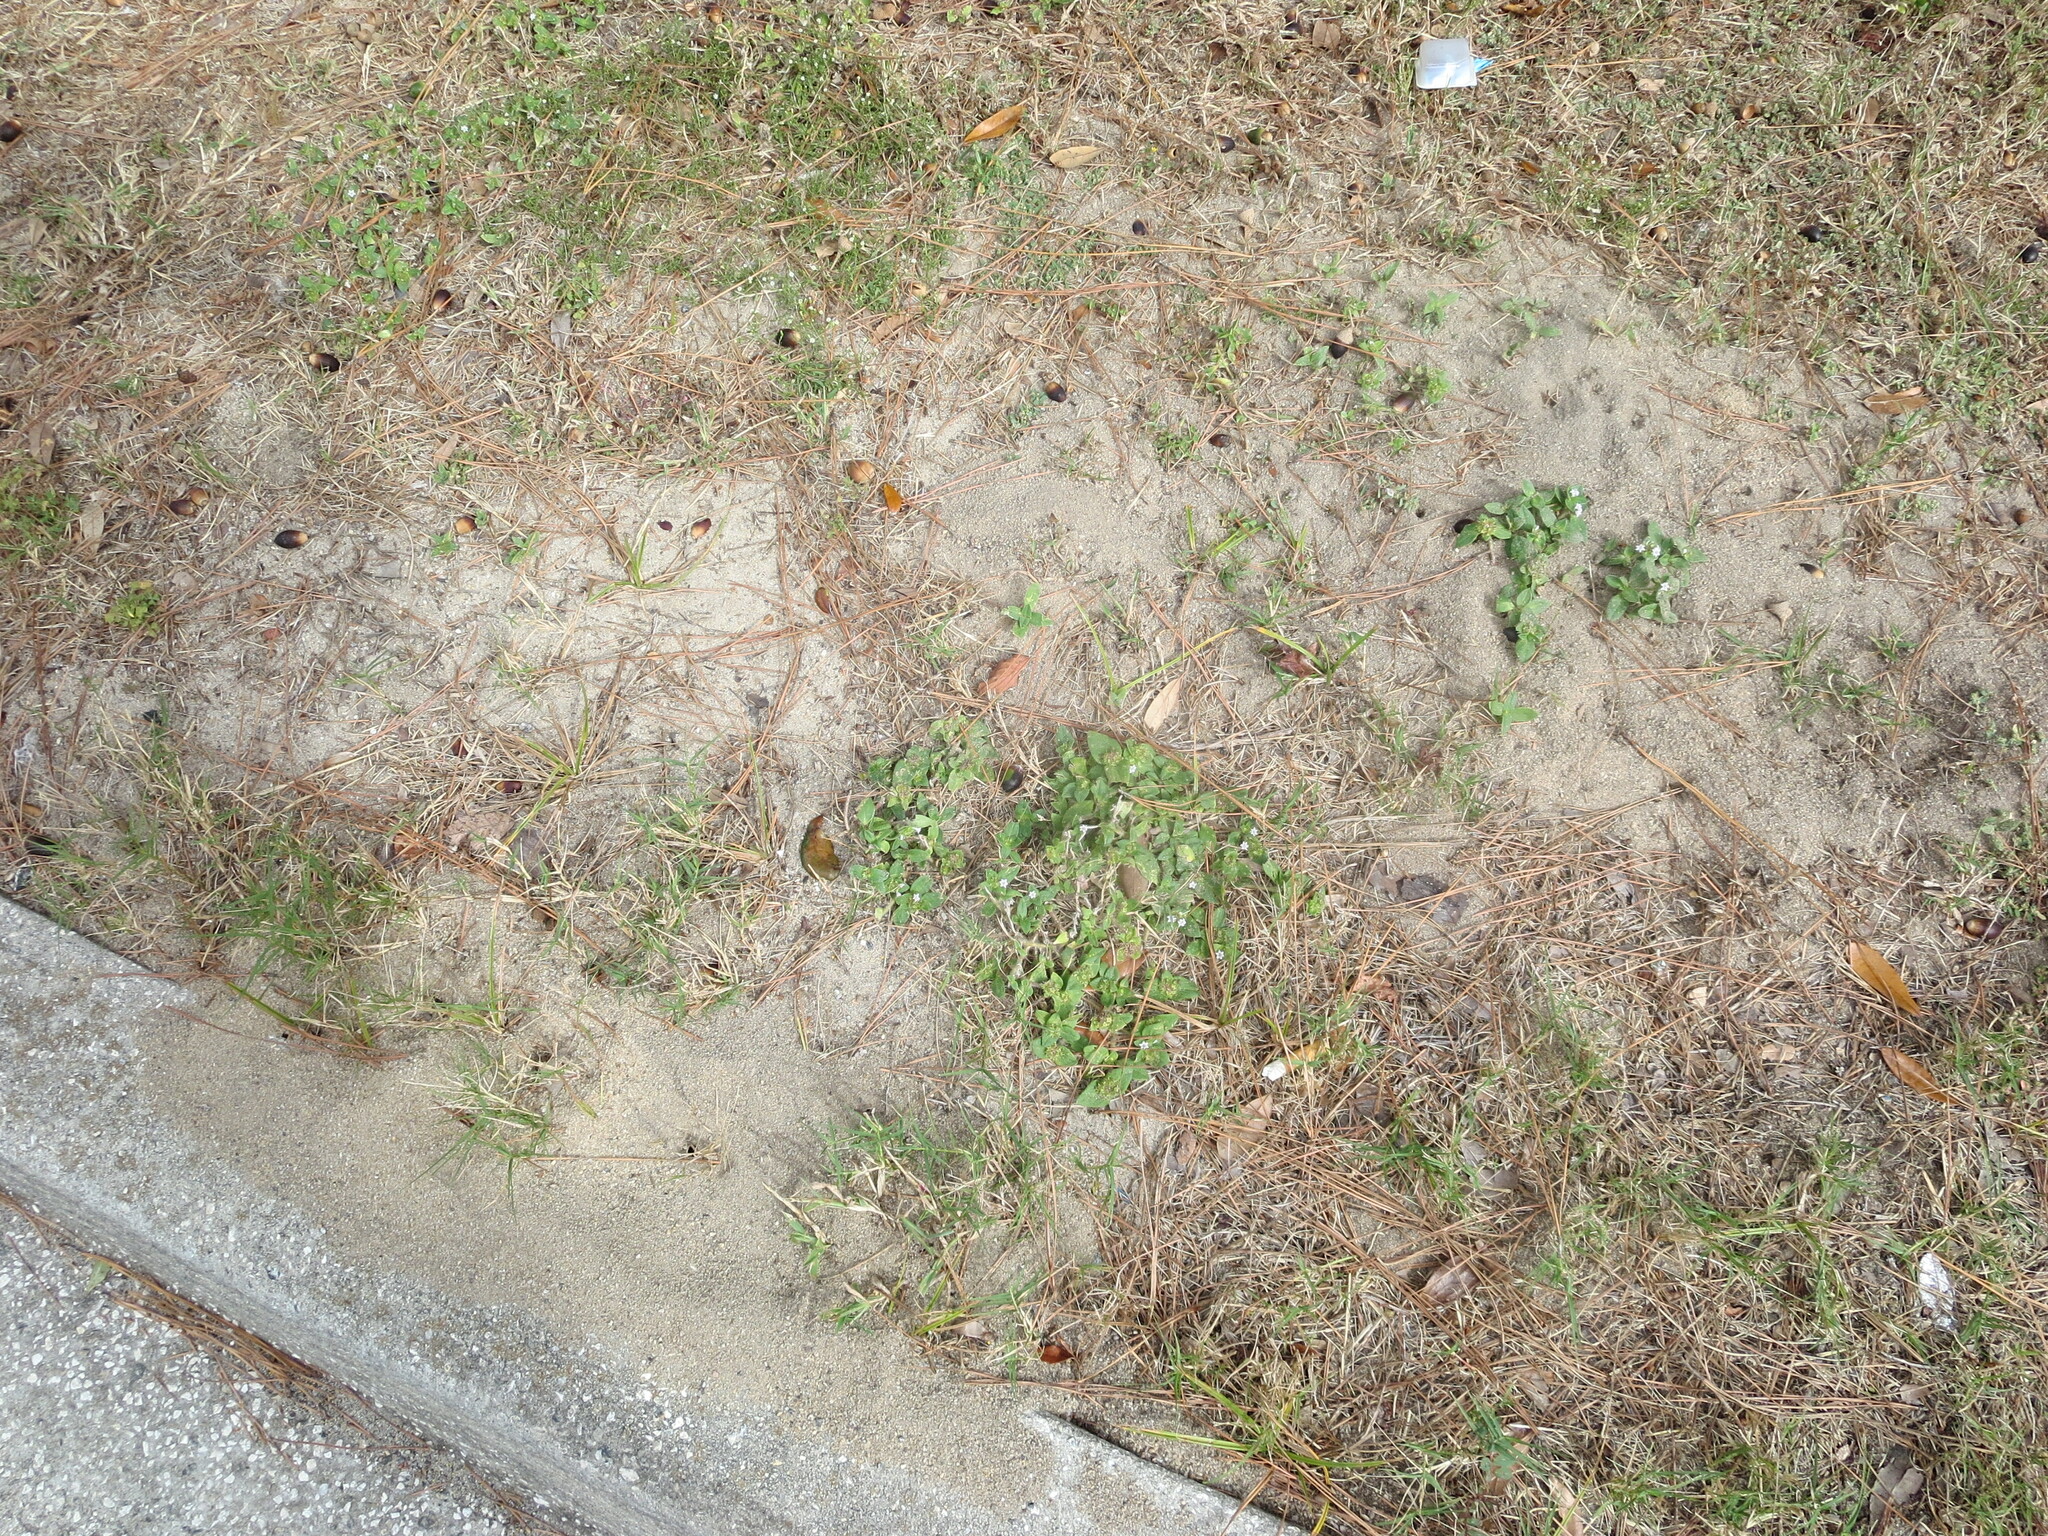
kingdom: Animalia
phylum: Arthropoda
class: Insecta
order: Hymenoptera
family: Formicidae
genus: Solenopsis
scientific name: Solenopsis invicta
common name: Red imported fire ant
